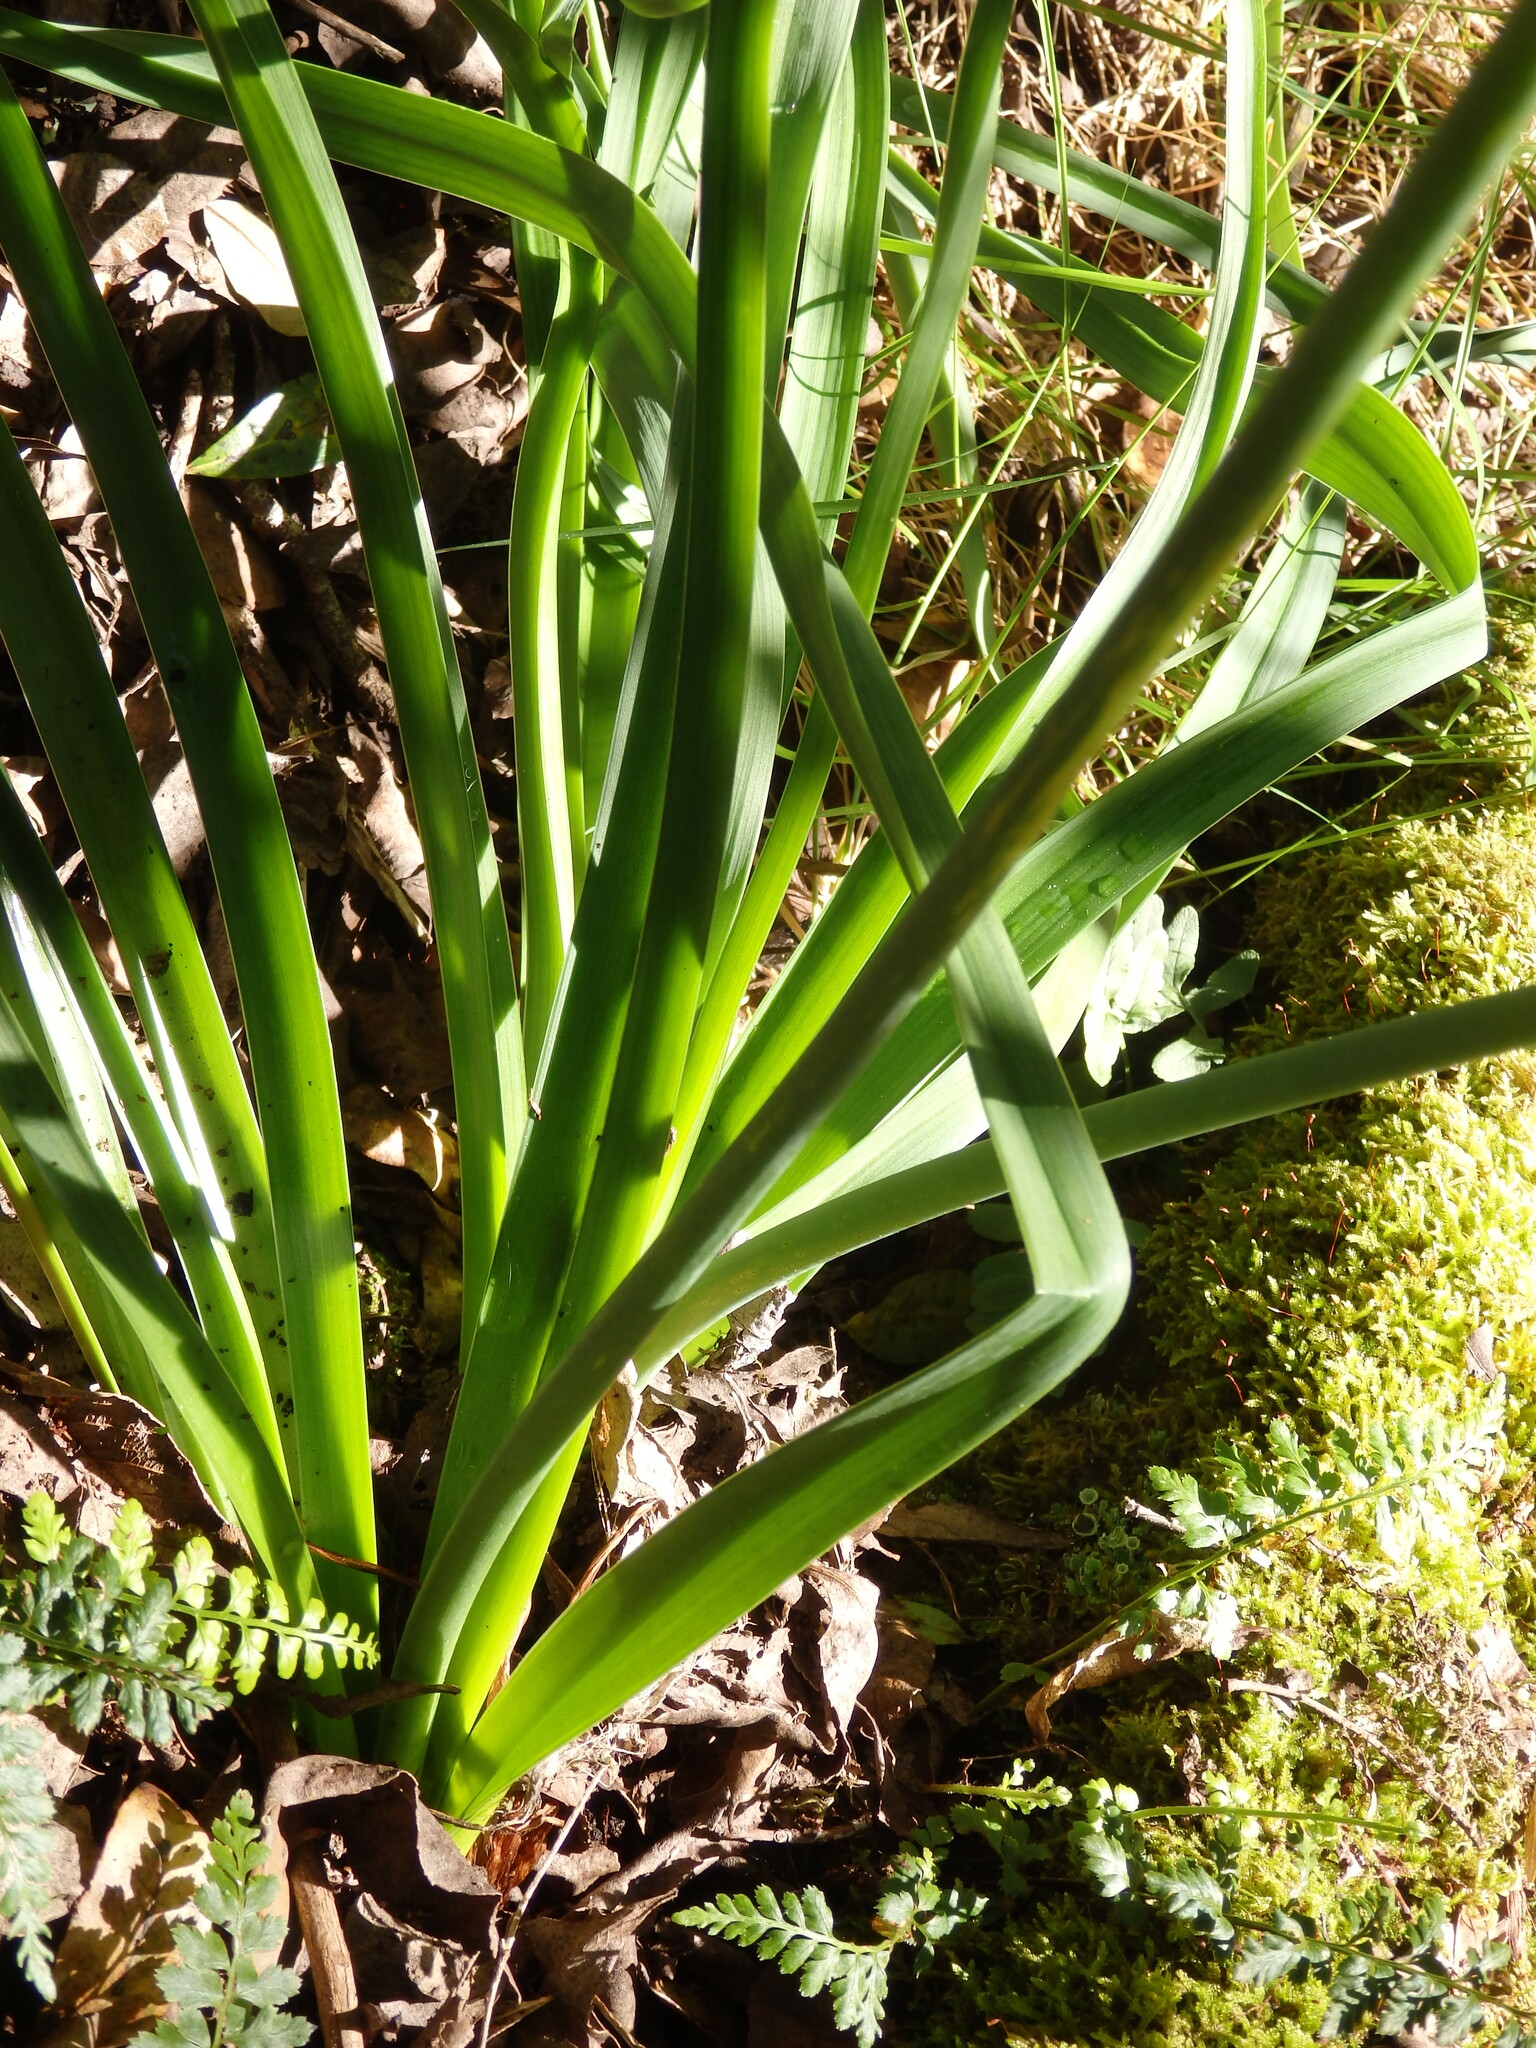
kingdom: Plantae
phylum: Tracheophyta
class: Liliopsida
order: Asparagales
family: Asphodelaceae
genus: Asphodelus
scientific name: Asphodelus serotinus
